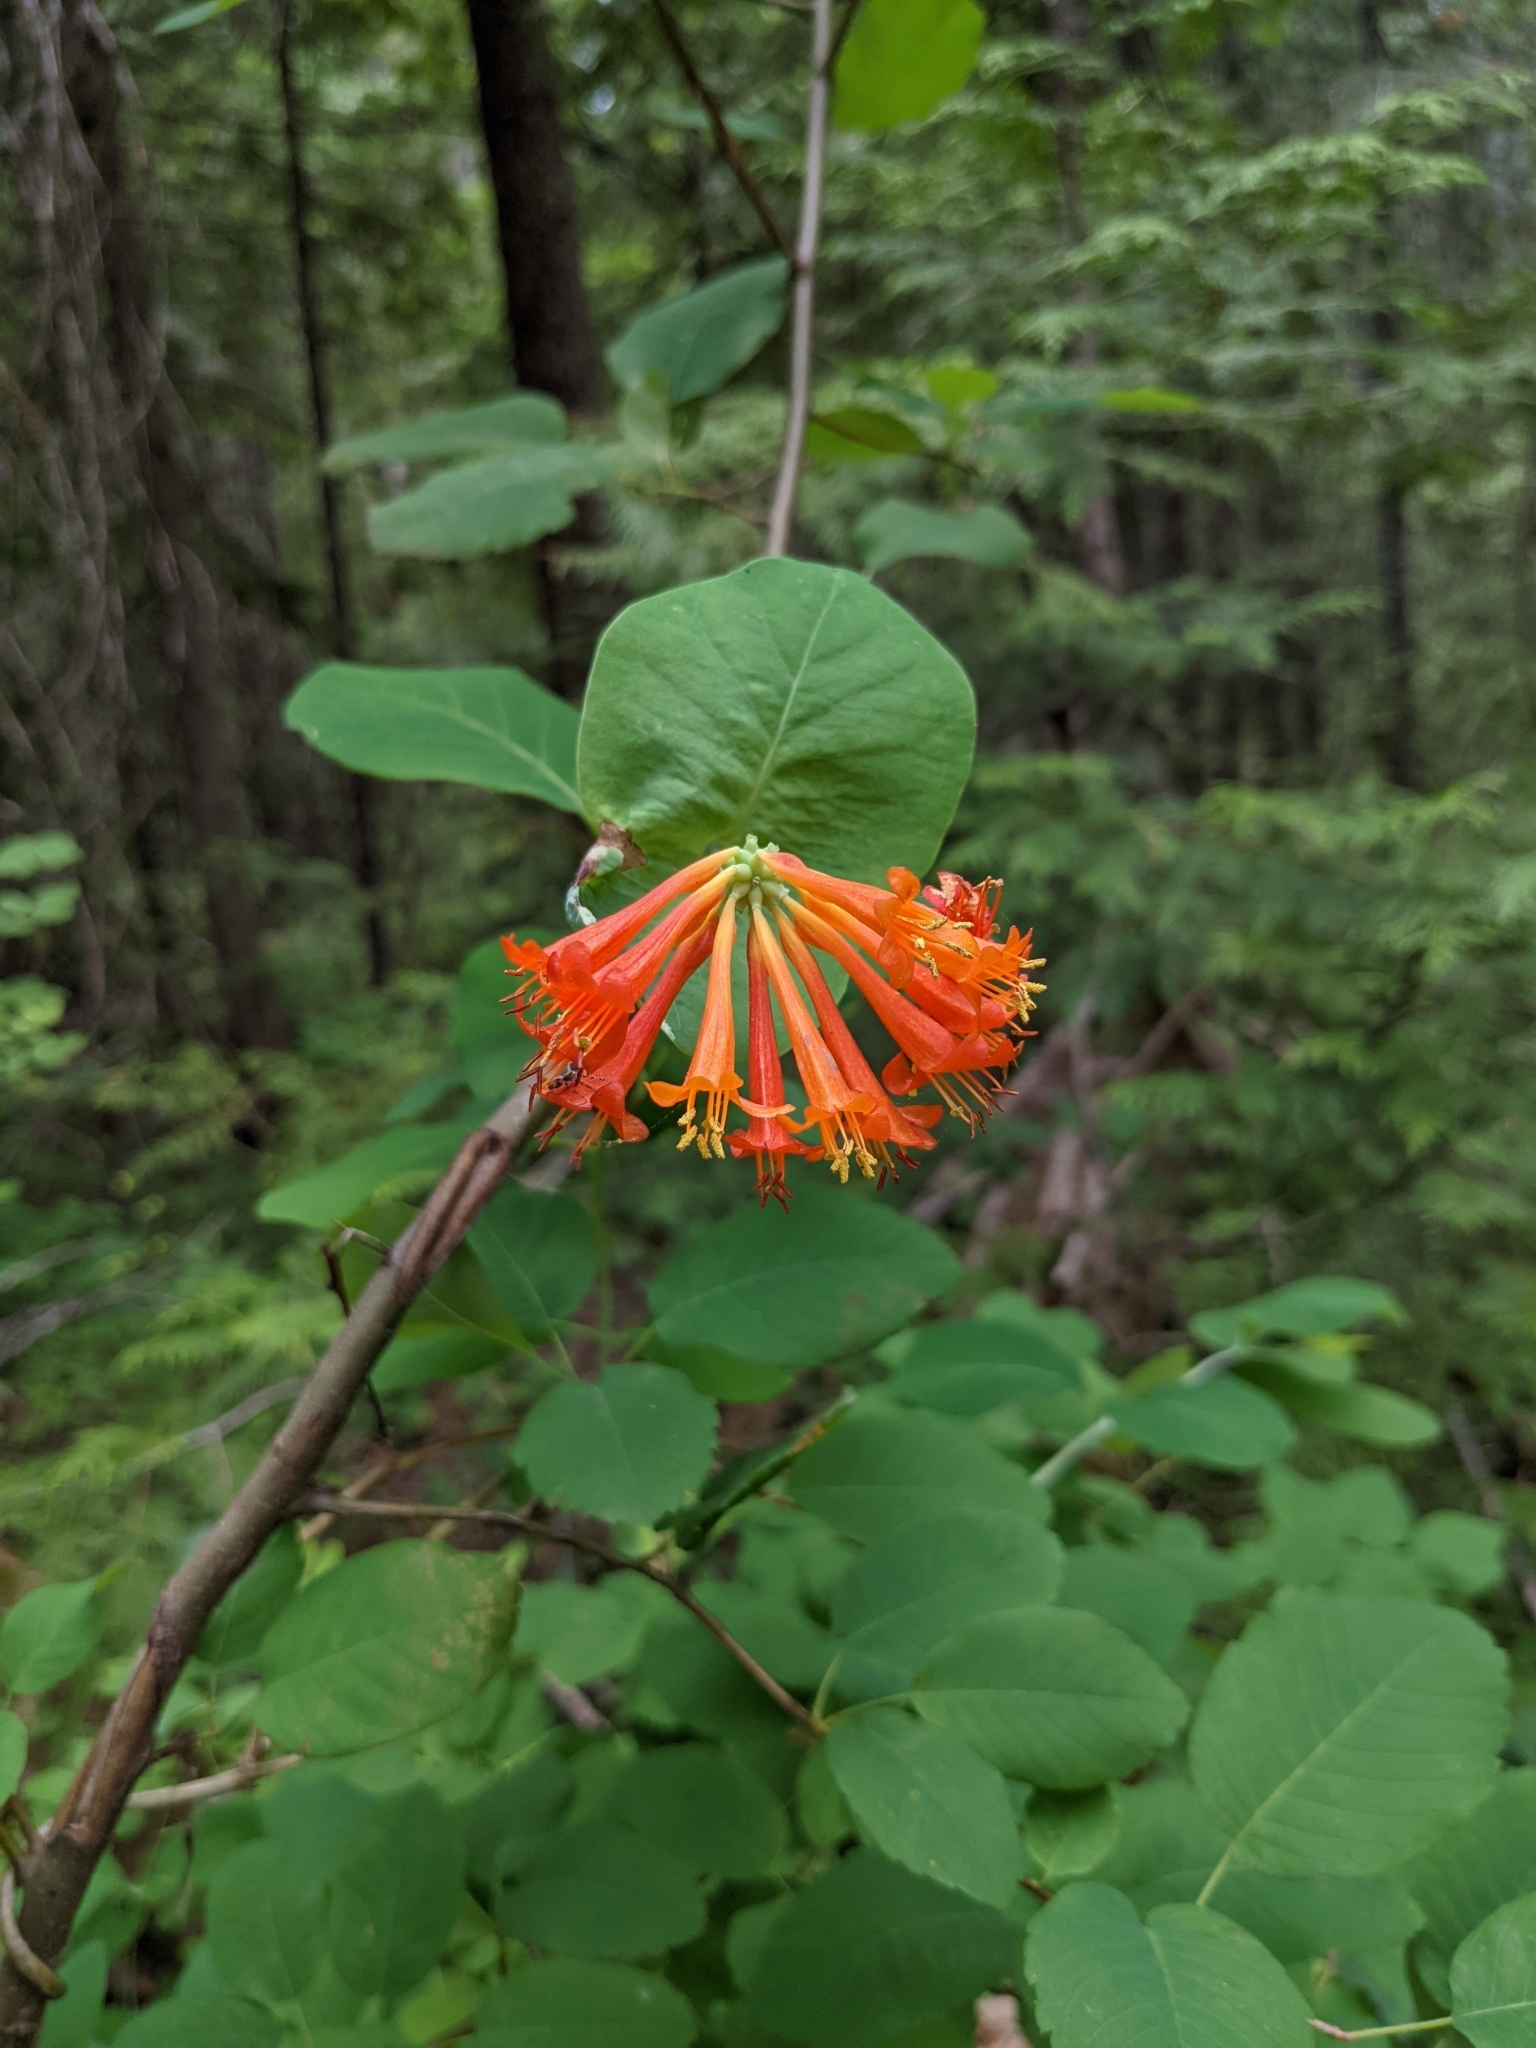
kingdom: Plantae
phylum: Tracheophyta
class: Magnoliopsida
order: Dipsacales
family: Caprifoliaceae
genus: Lonicera
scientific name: Lonicera ciliosa
